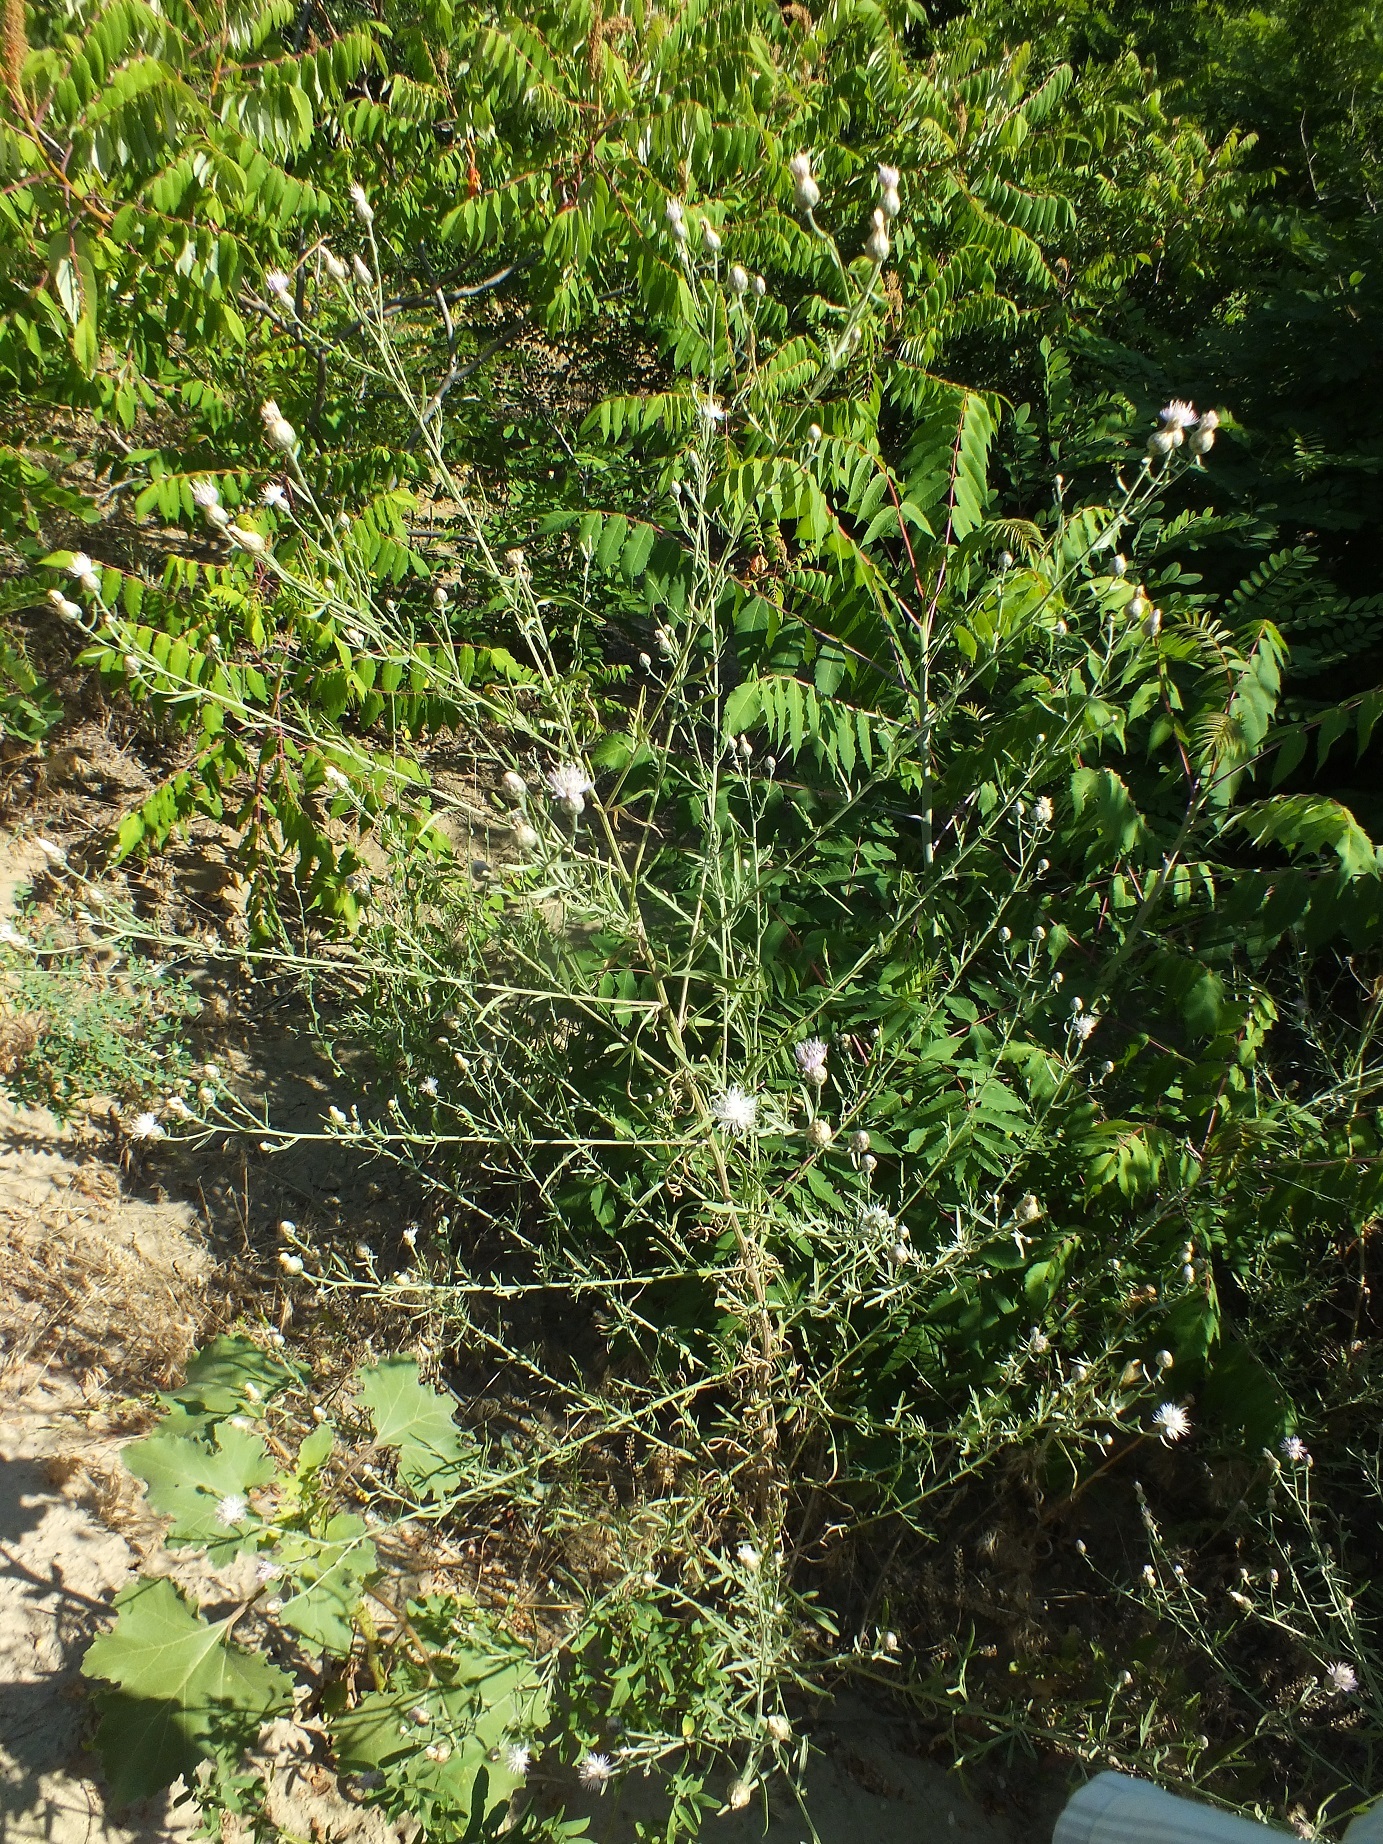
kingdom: Plantae
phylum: Tracheophyta
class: Magnoliopsida
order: Asterales
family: Asteraceae
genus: Centaurea
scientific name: Centaurea diffusa
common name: Diffuse knapweed
